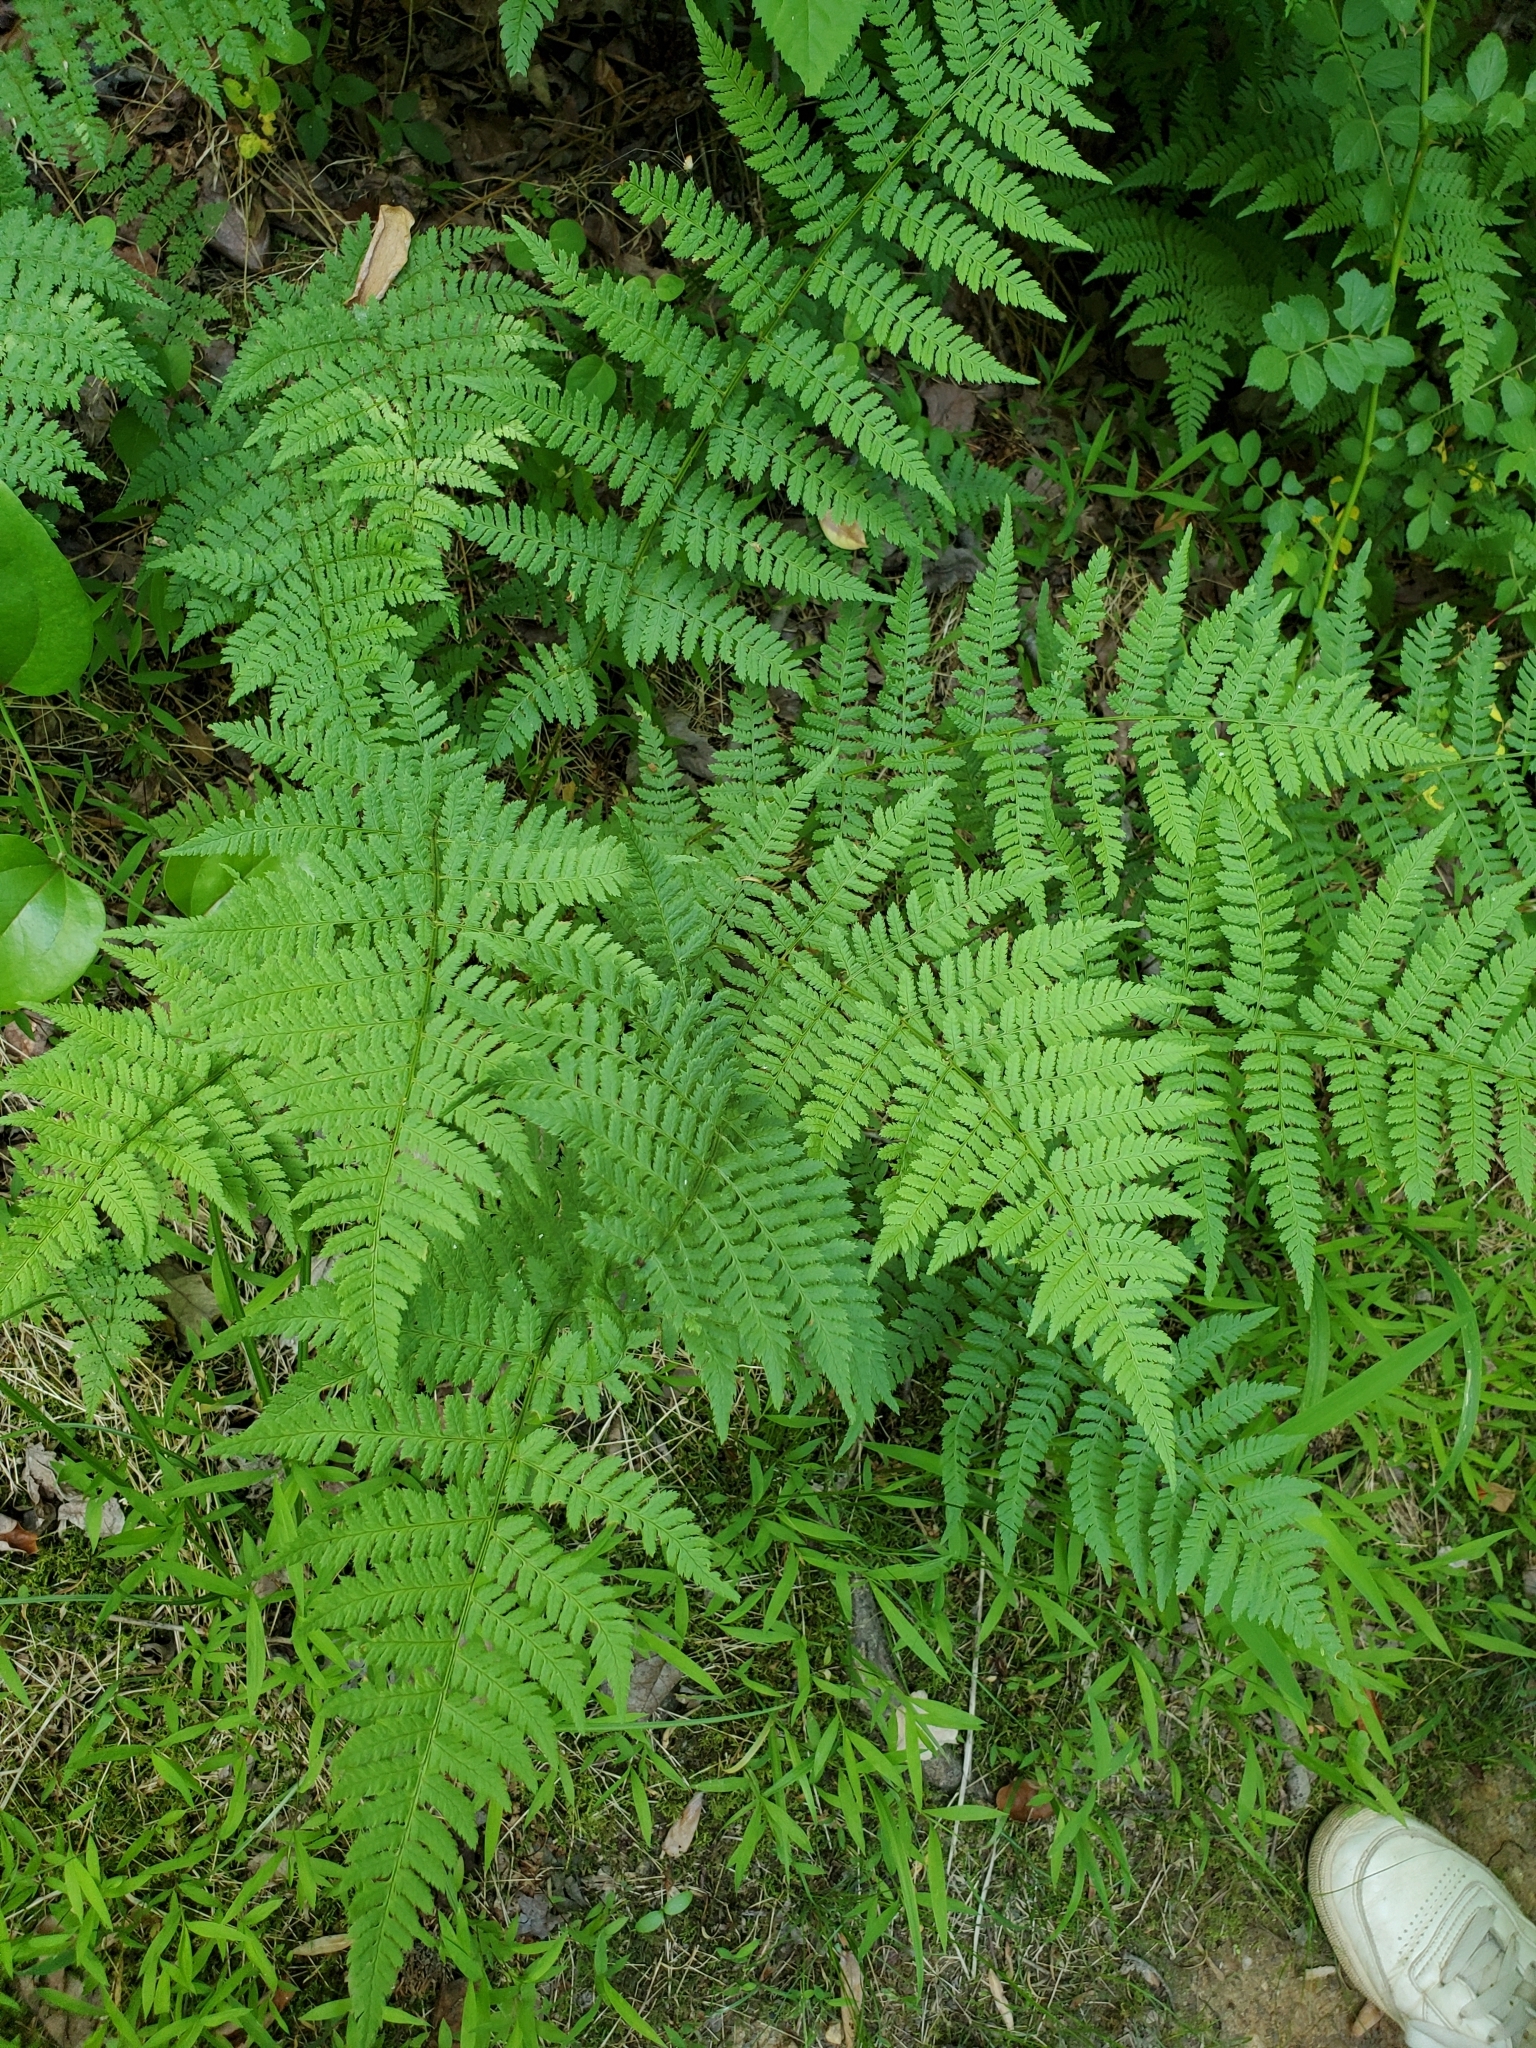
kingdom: Plantae
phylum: Tracheophyta
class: Polypodiopsida
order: Polypodiales
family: Dryopteridaceae
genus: Dryopteris
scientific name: Dryopteris intermedia
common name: Evergreen wood fern
